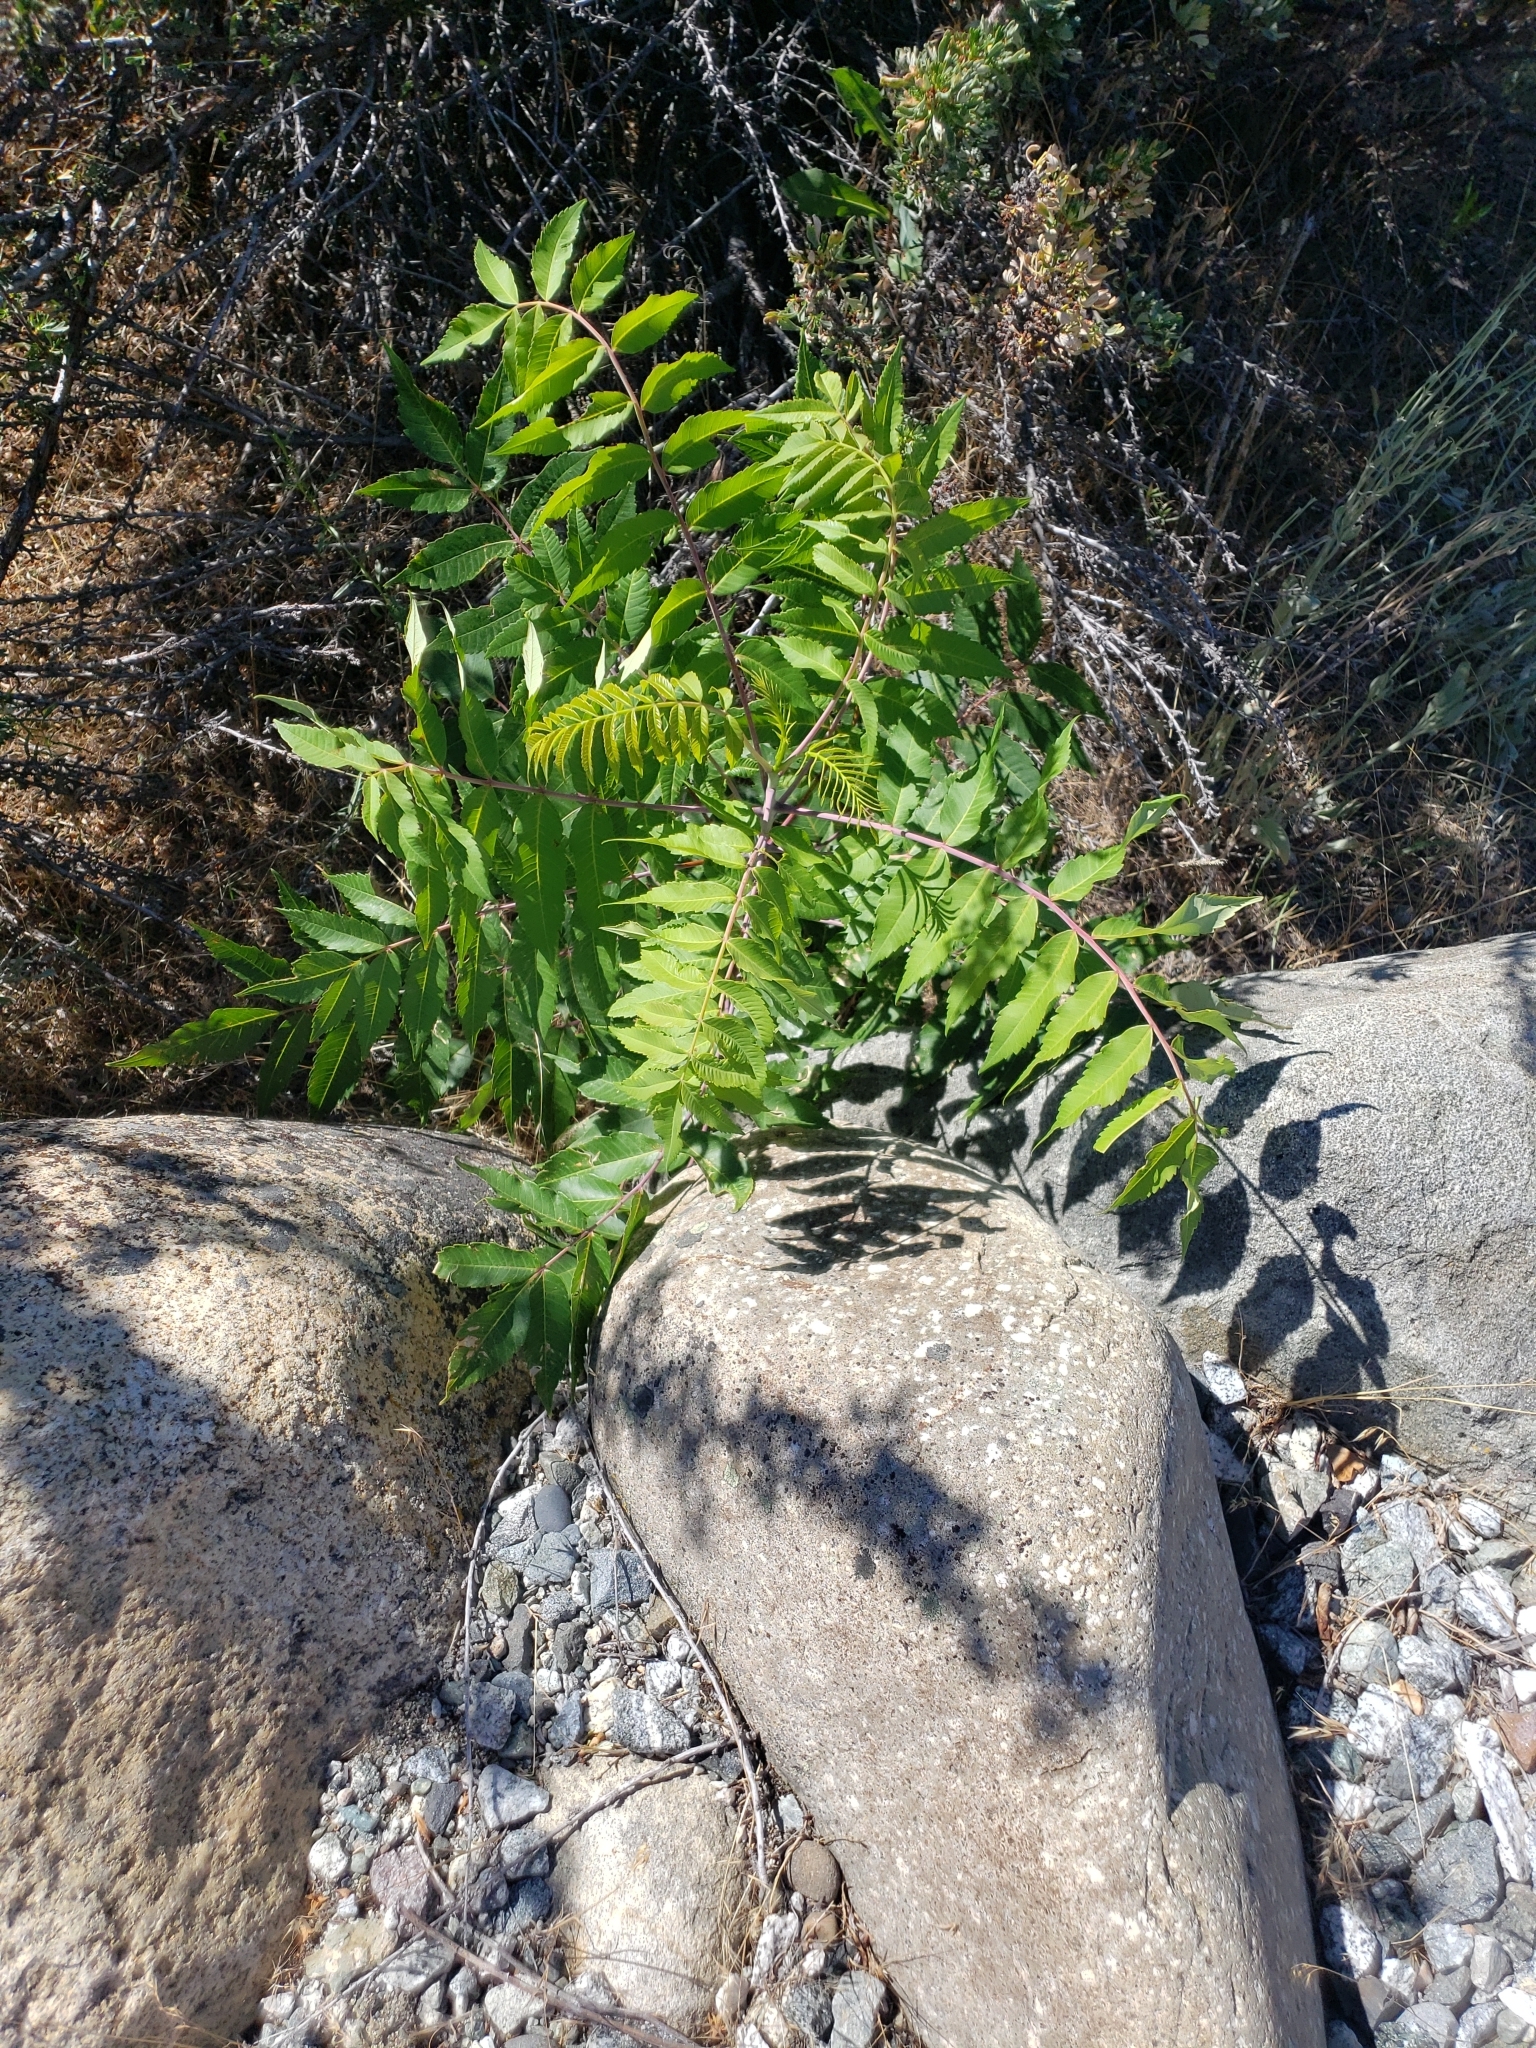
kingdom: Plantae
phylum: Tracheophyta
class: Magnoliopsida
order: Sapindales
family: Anacardiaceae
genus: Rhus
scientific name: Rhus glabra
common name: Scarlet sumac
